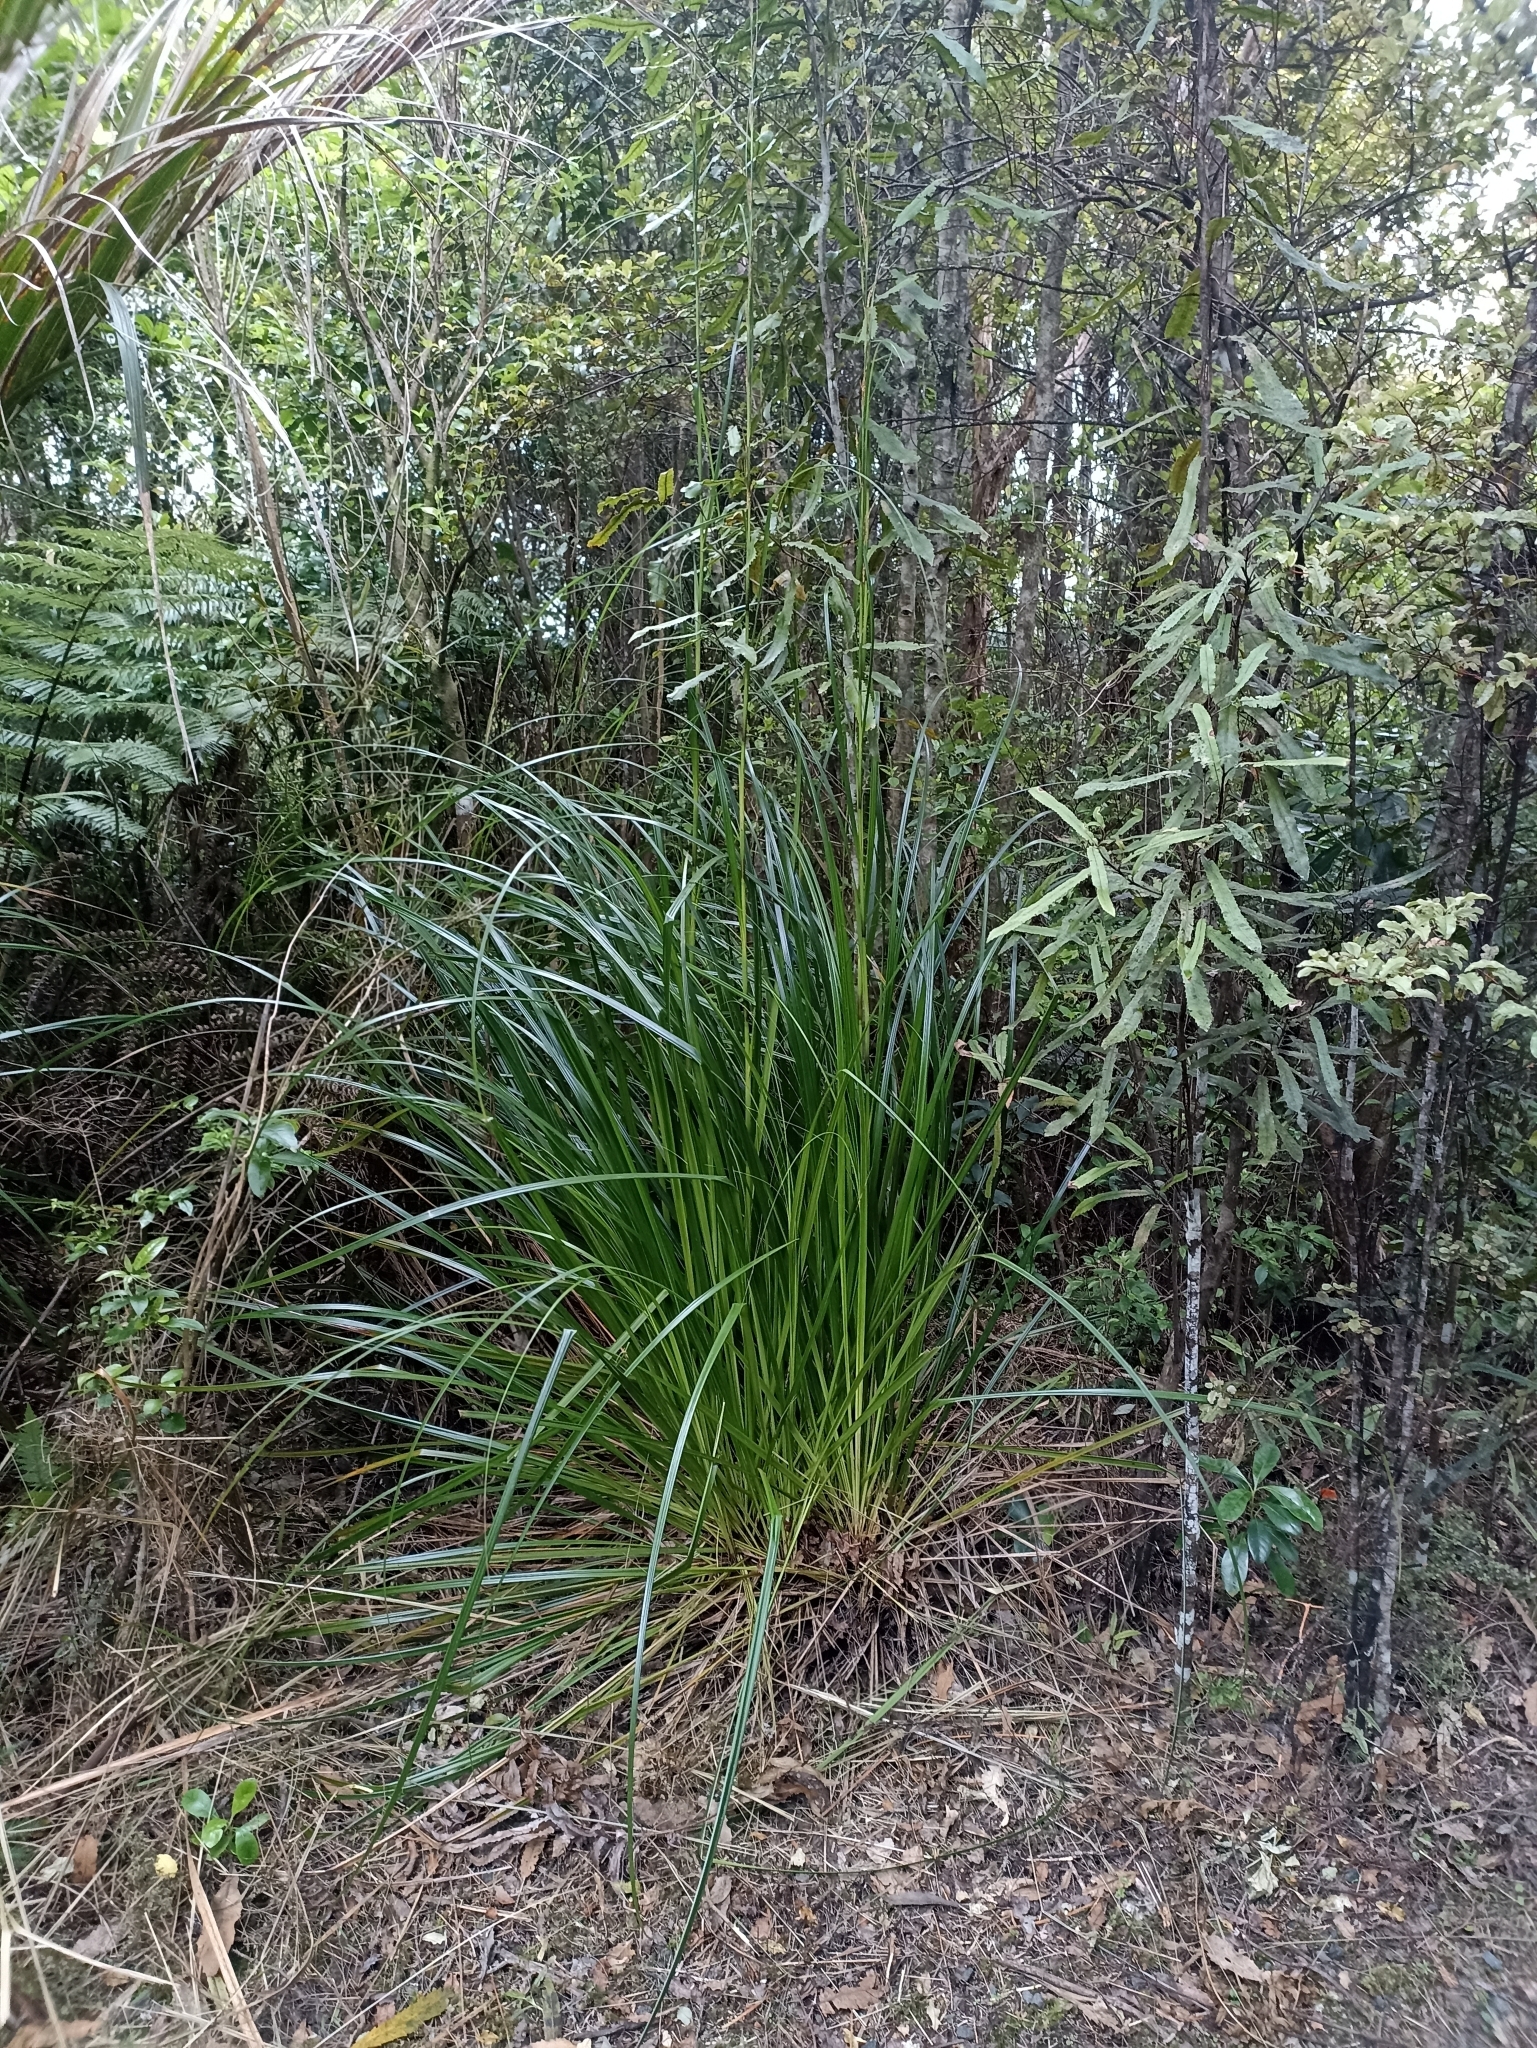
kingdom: Plantae
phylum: Tracheophyta
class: Liliopsida
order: Poales
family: Cyperaceae
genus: Gahnia
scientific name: Gahnia xanthocarpa
